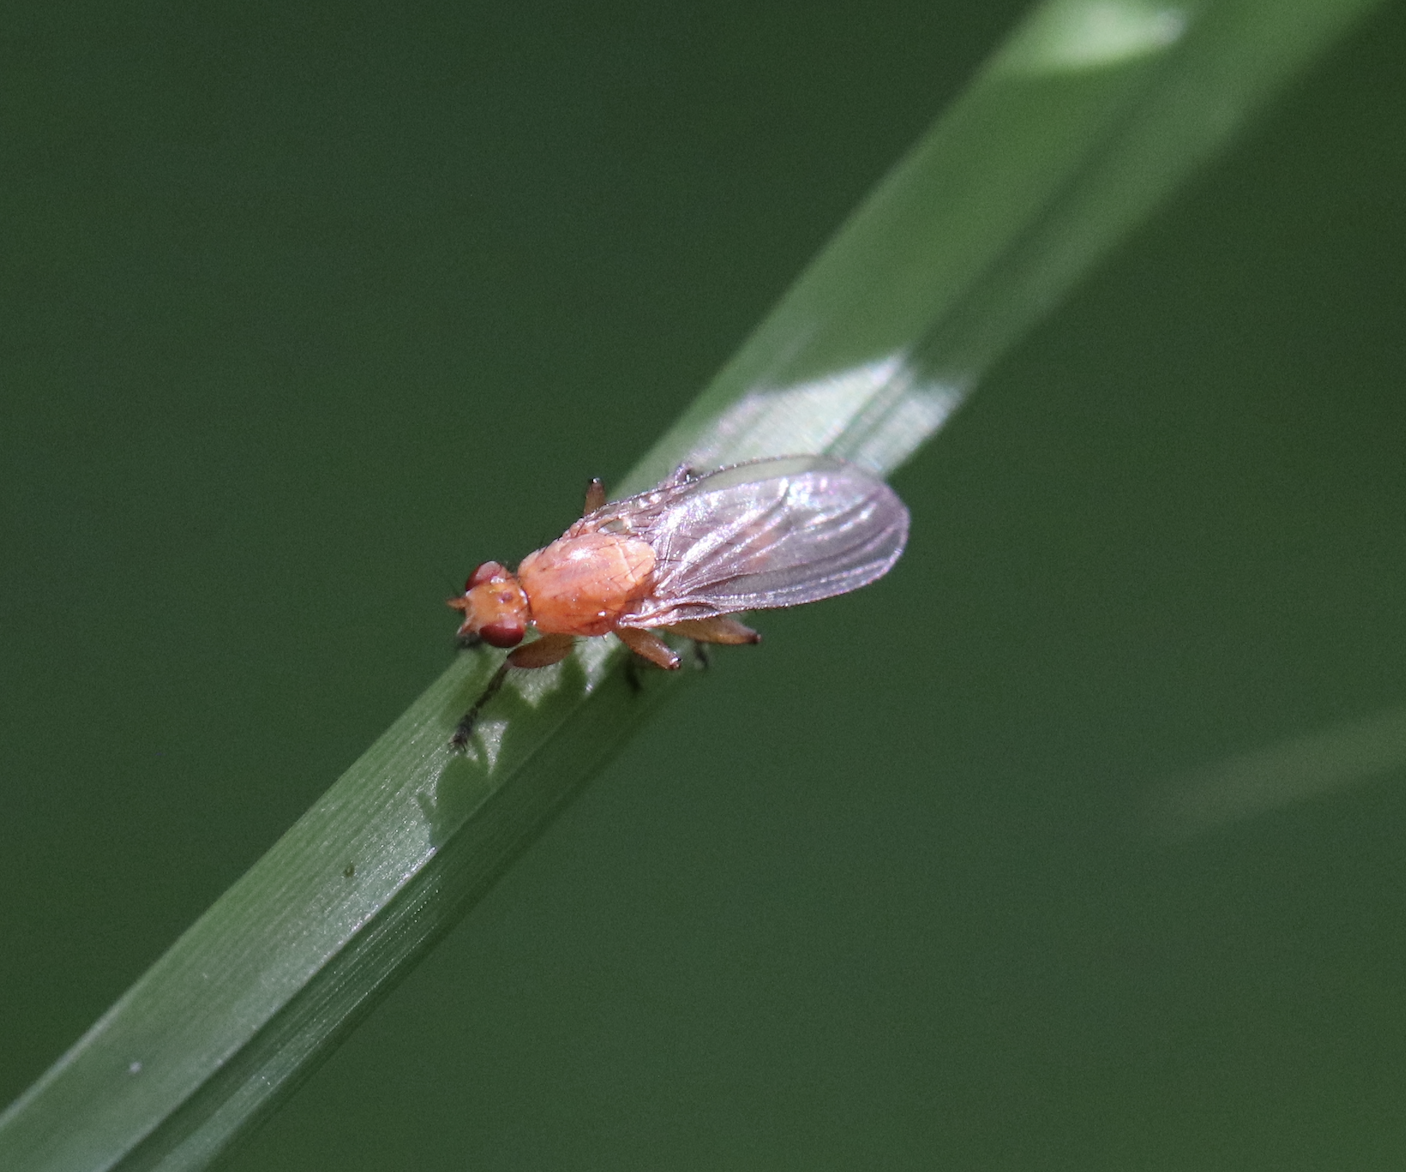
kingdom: Animalia
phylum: Arthropoda
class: Insecta
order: Diptera
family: Heleomyzidae
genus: Suillia
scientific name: Suillia convergens
